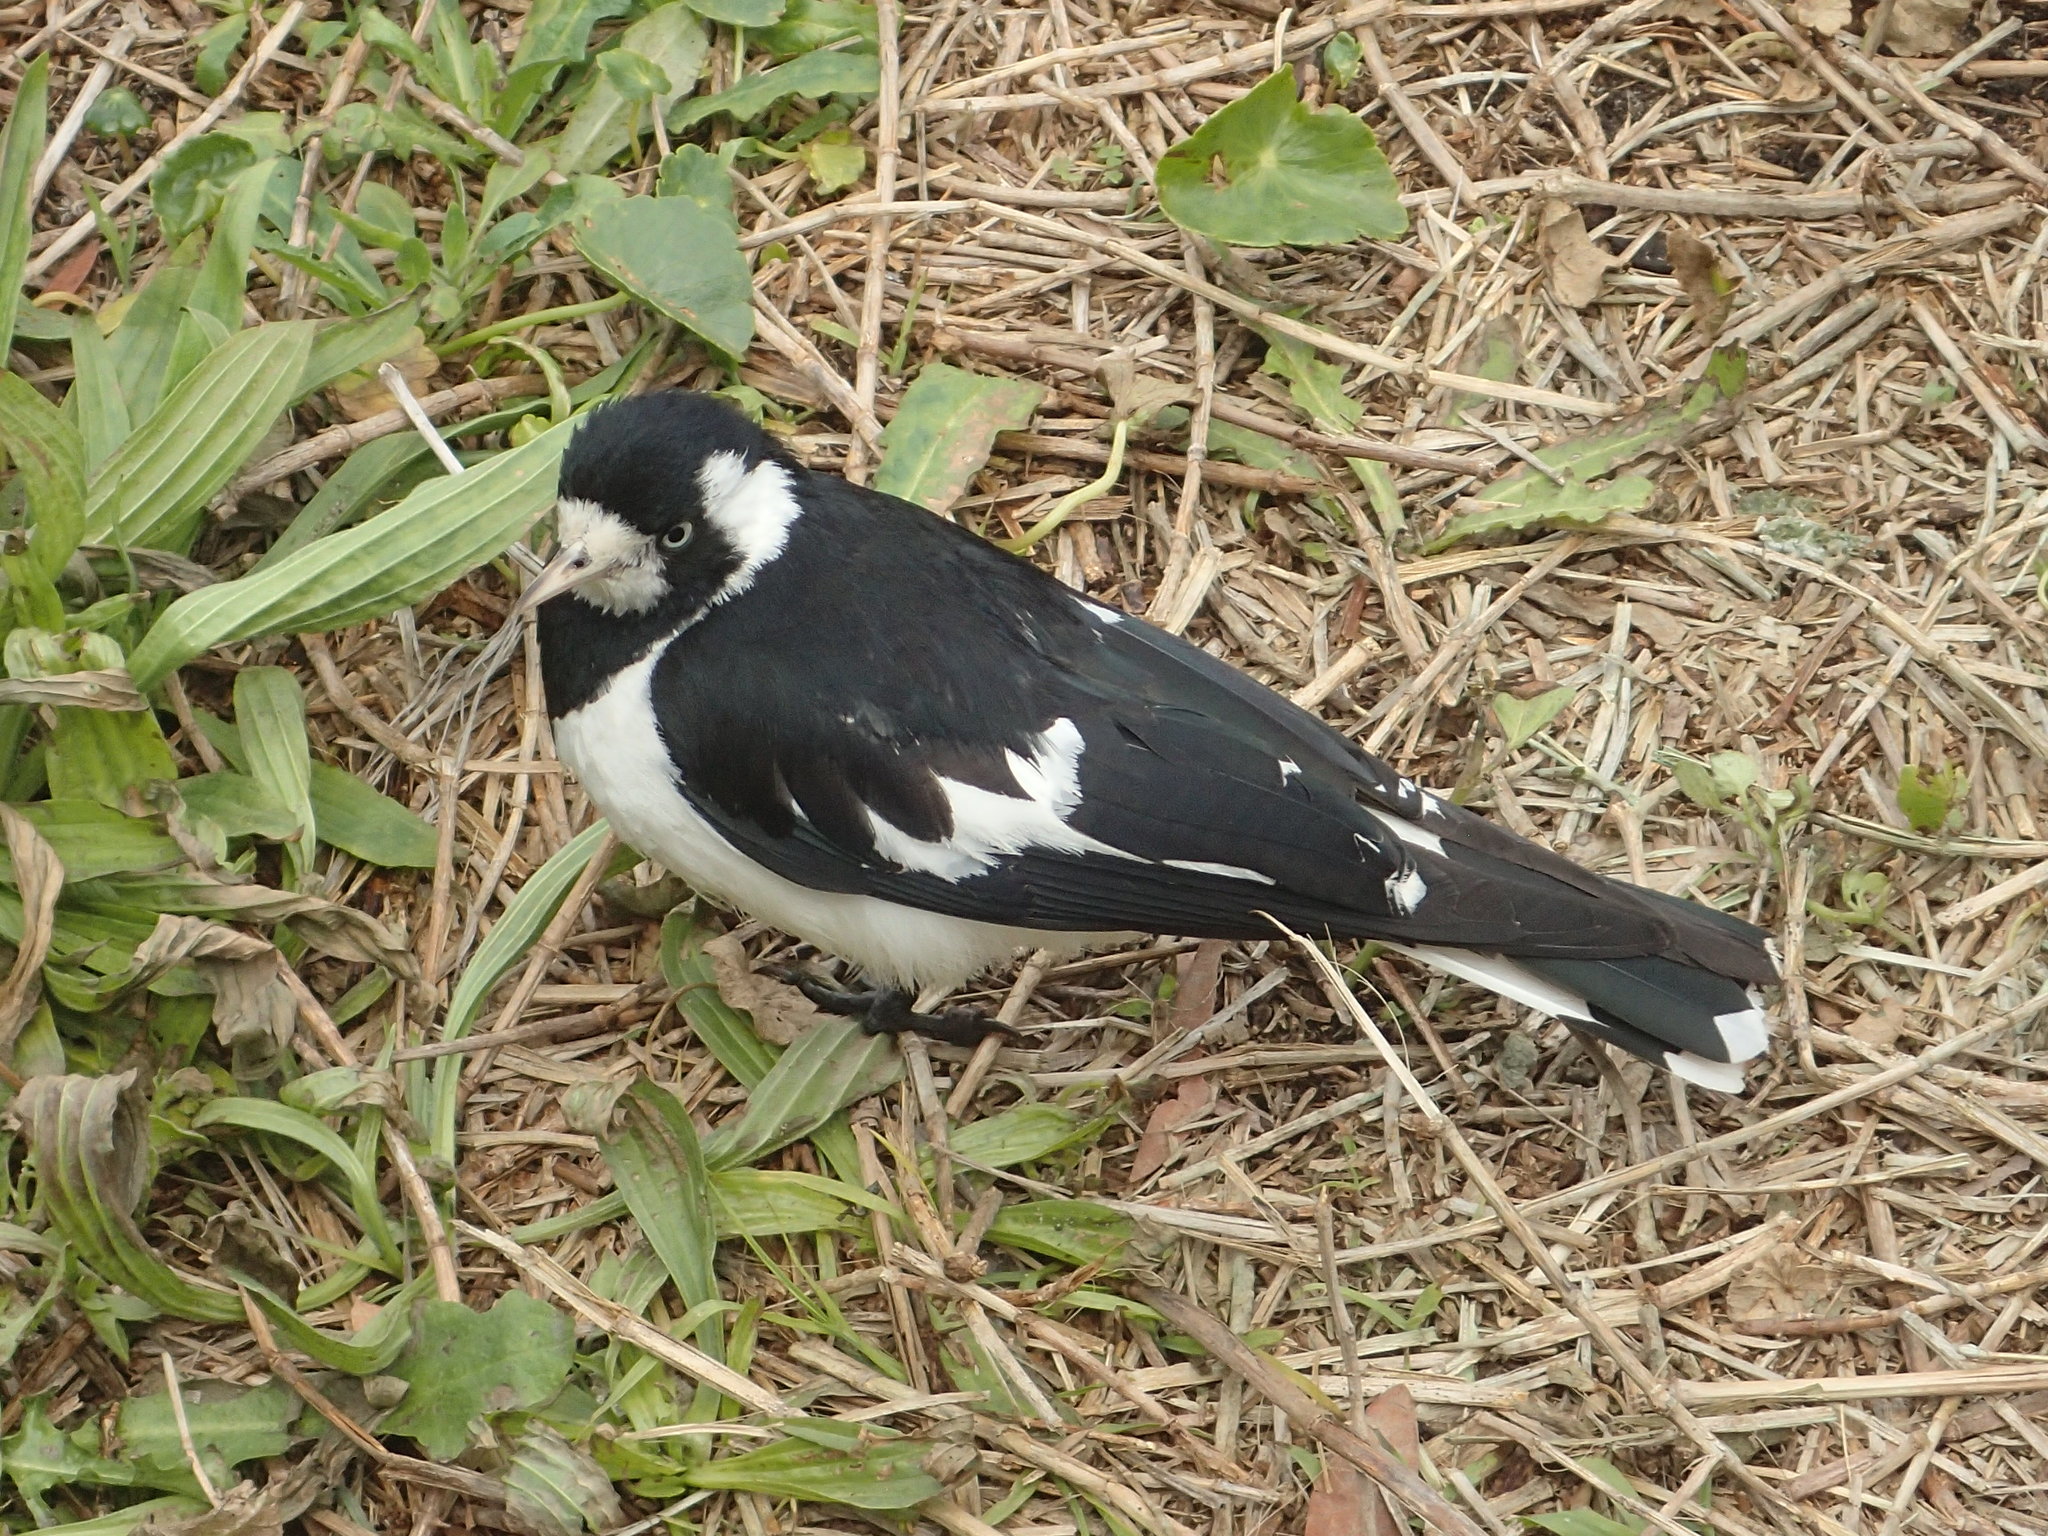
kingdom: Animalia
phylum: Chordata
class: Aves
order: Passeriformes
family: Monarchidae
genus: Grallina
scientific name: Grallina cyanoleuca
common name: Magpie-lark
